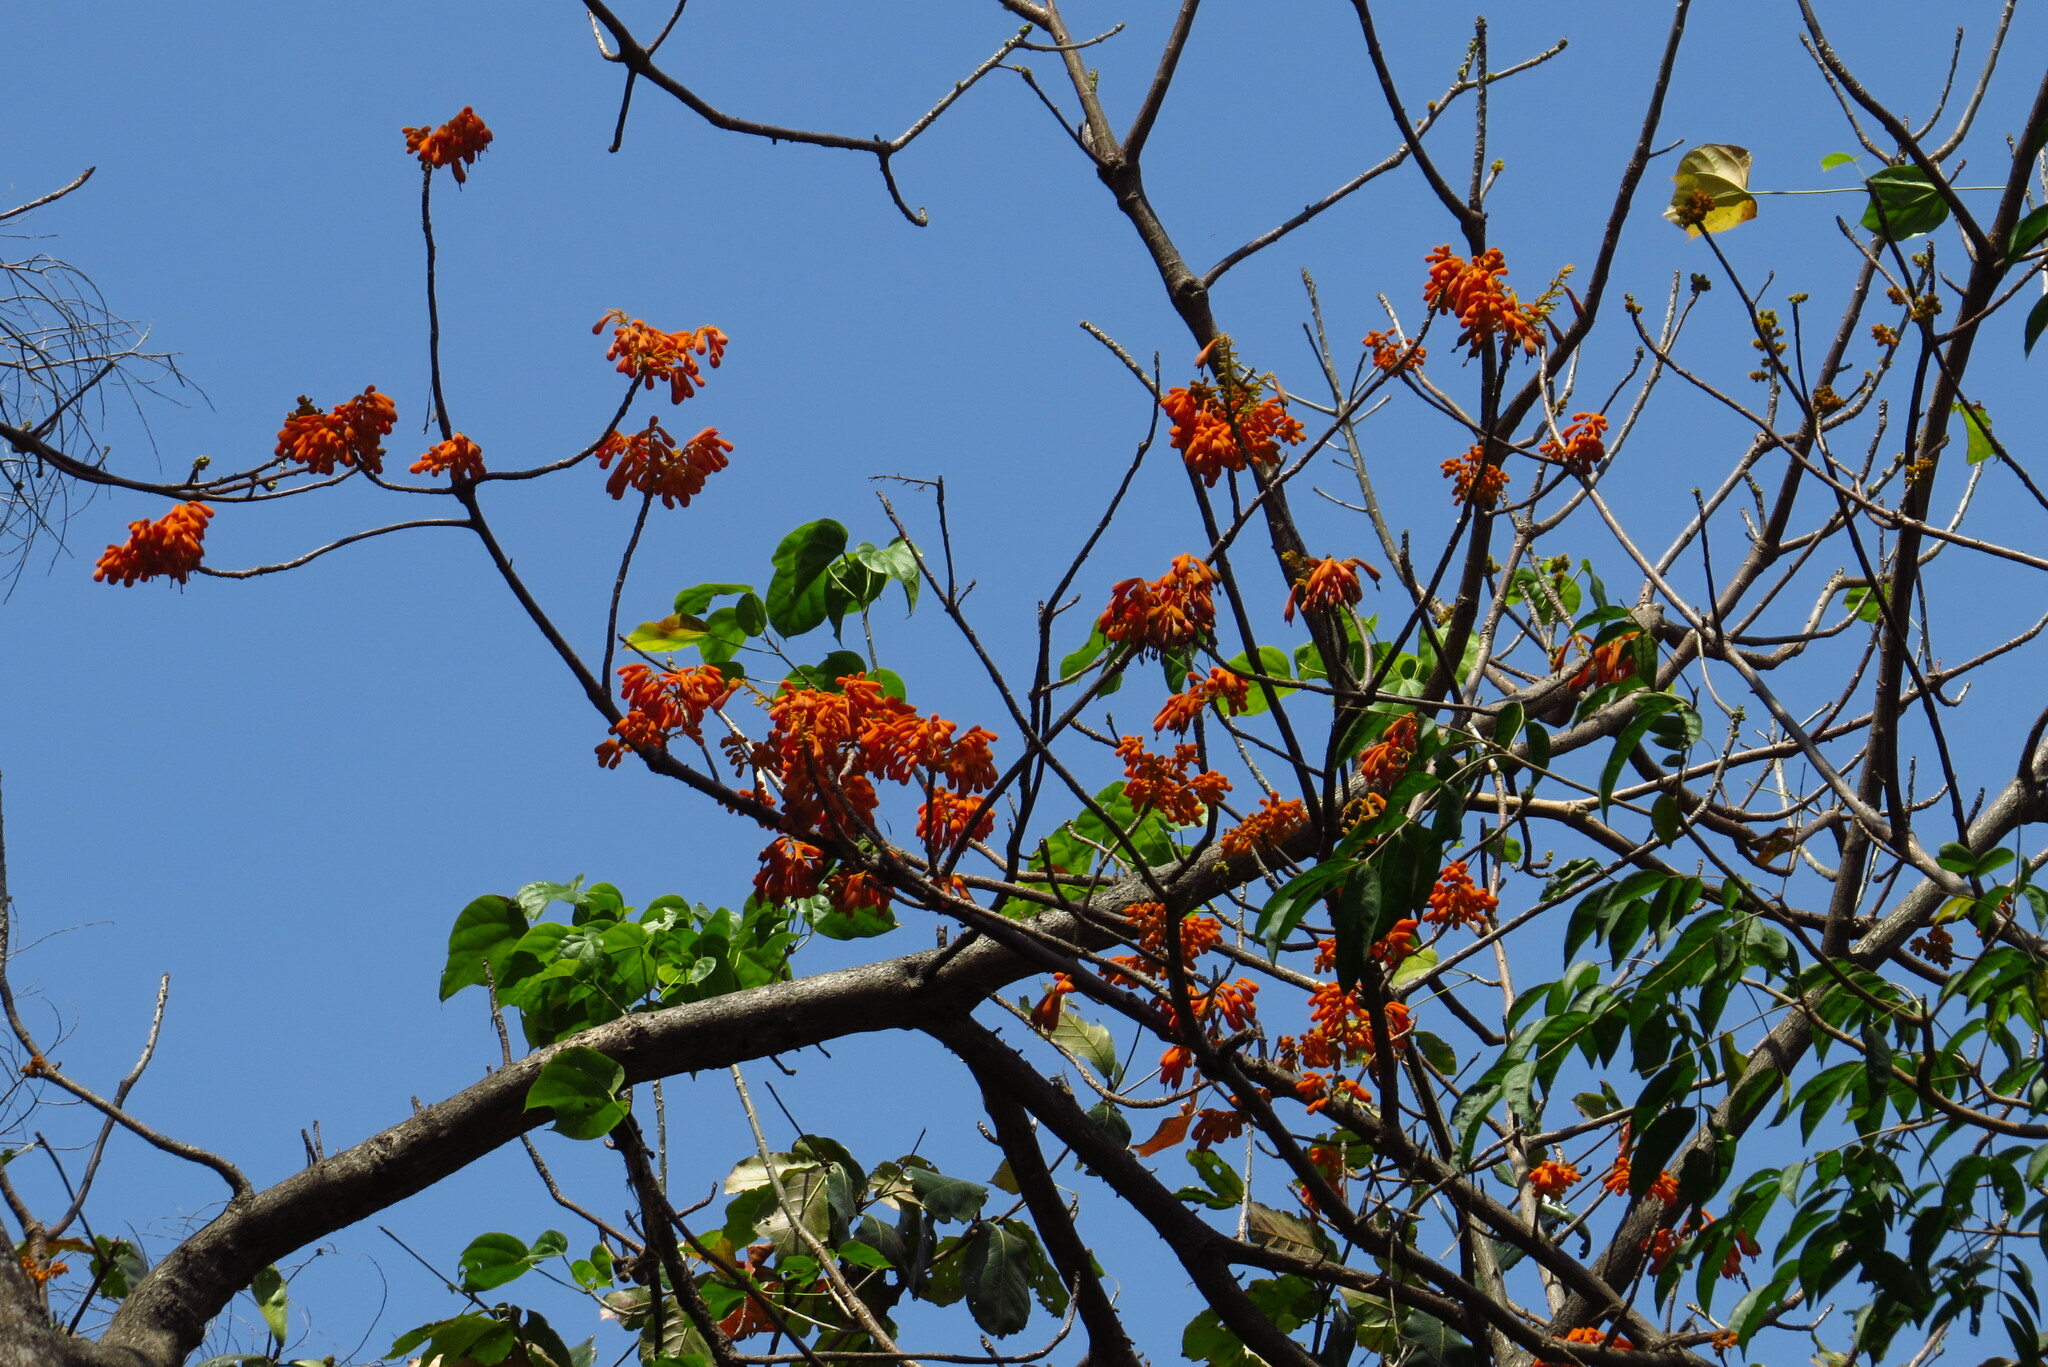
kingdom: Plantae
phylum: Tracheophyta
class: Magnoliopsida
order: Malvales
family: Malvaceae
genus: Firmiana
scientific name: Firmiana malayana
